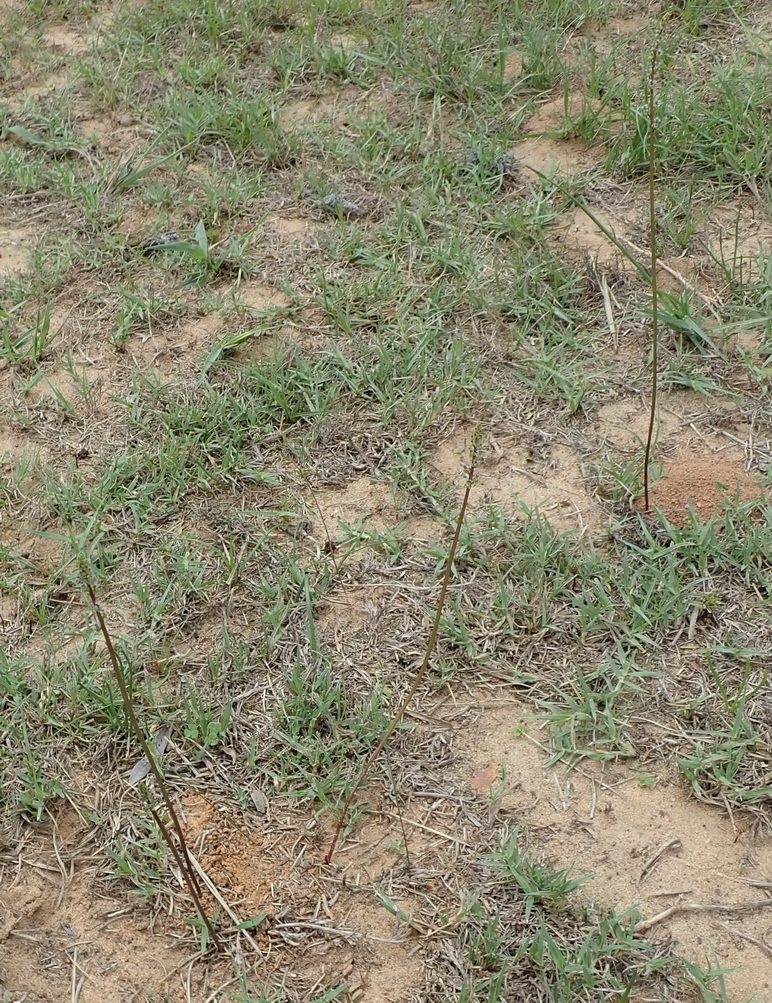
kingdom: Plantae
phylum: Tracheophyta
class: Liliopsida
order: Alismatales
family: Juncaginaceae
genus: Triglochin
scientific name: Triglochin compacta
